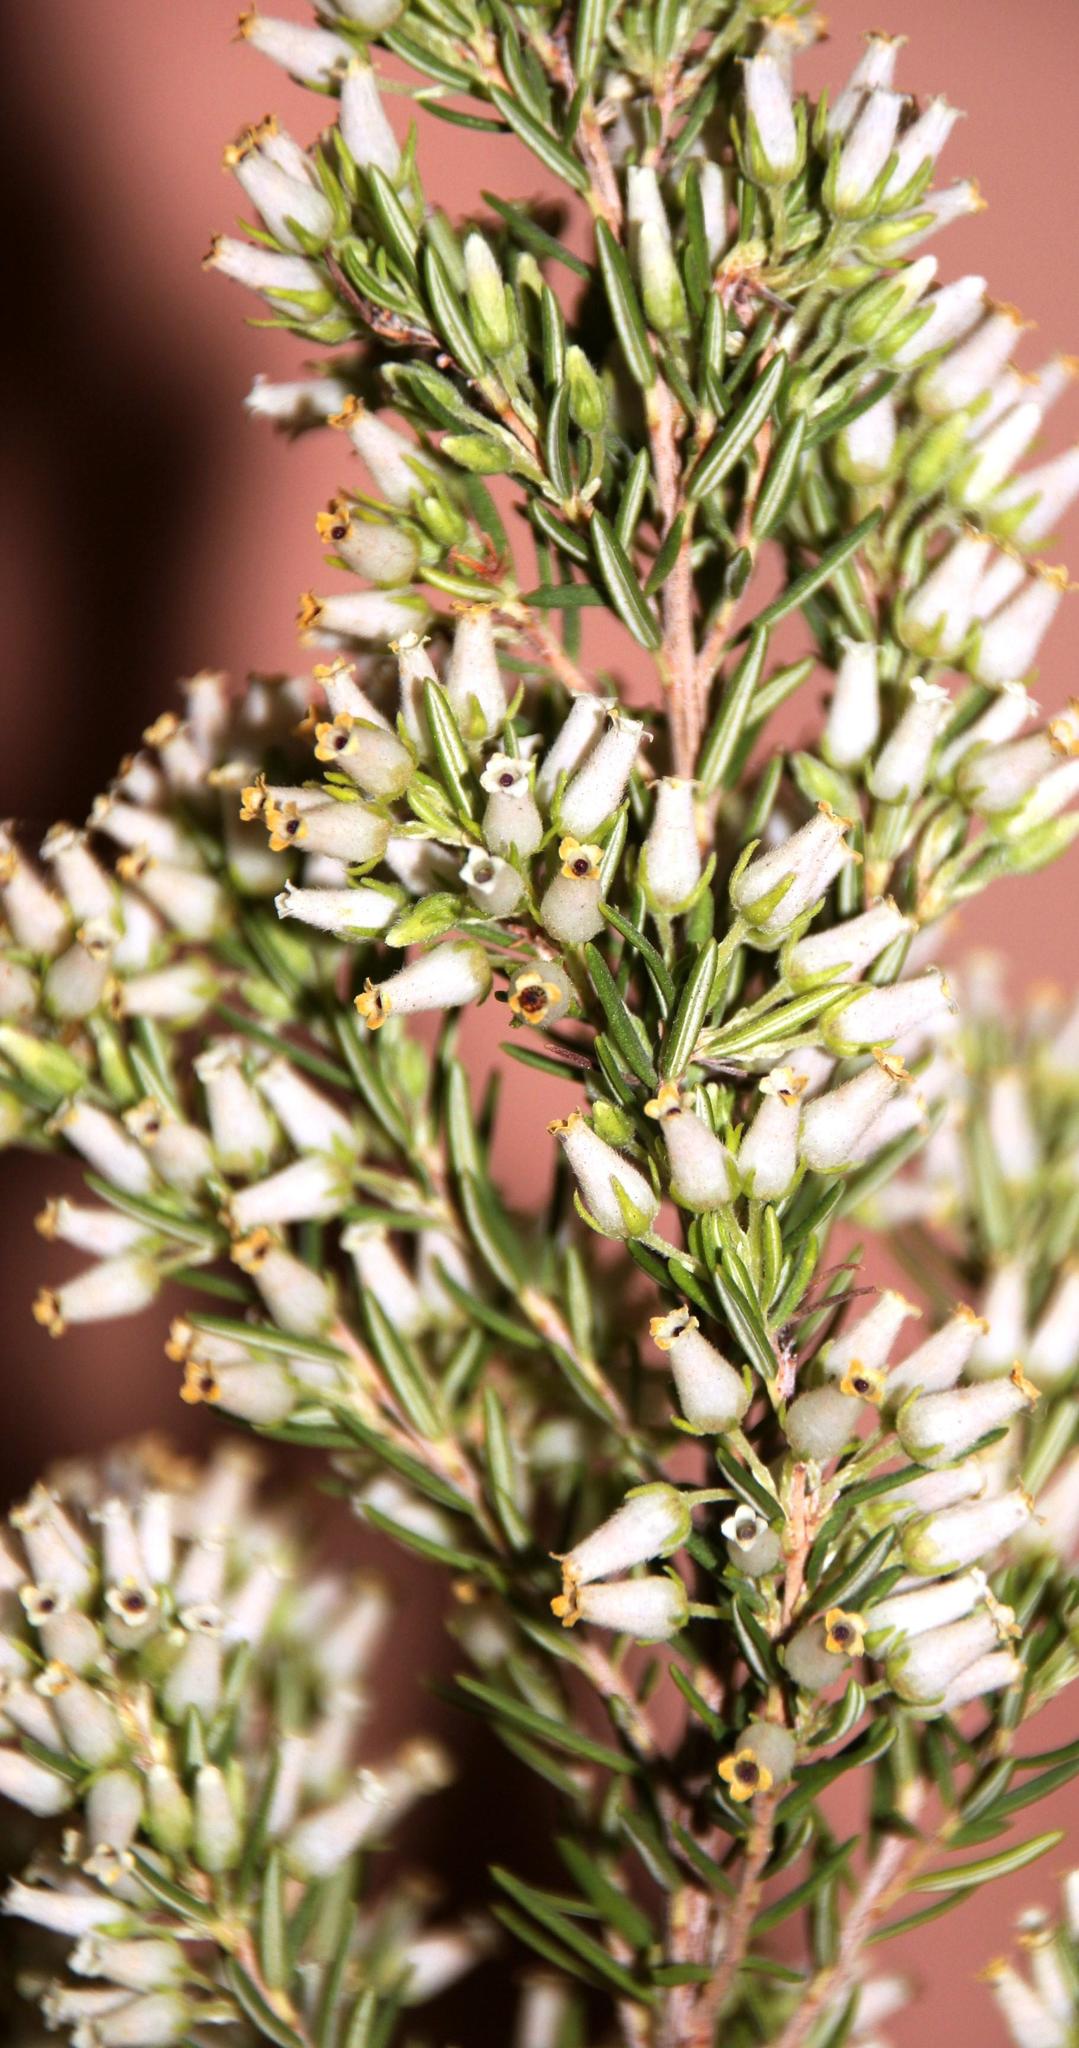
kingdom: Plantae
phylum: Tracheophyta
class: Magnoliopsida
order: Ericales
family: Ericaceae
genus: Erica
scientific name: Erica caffra
